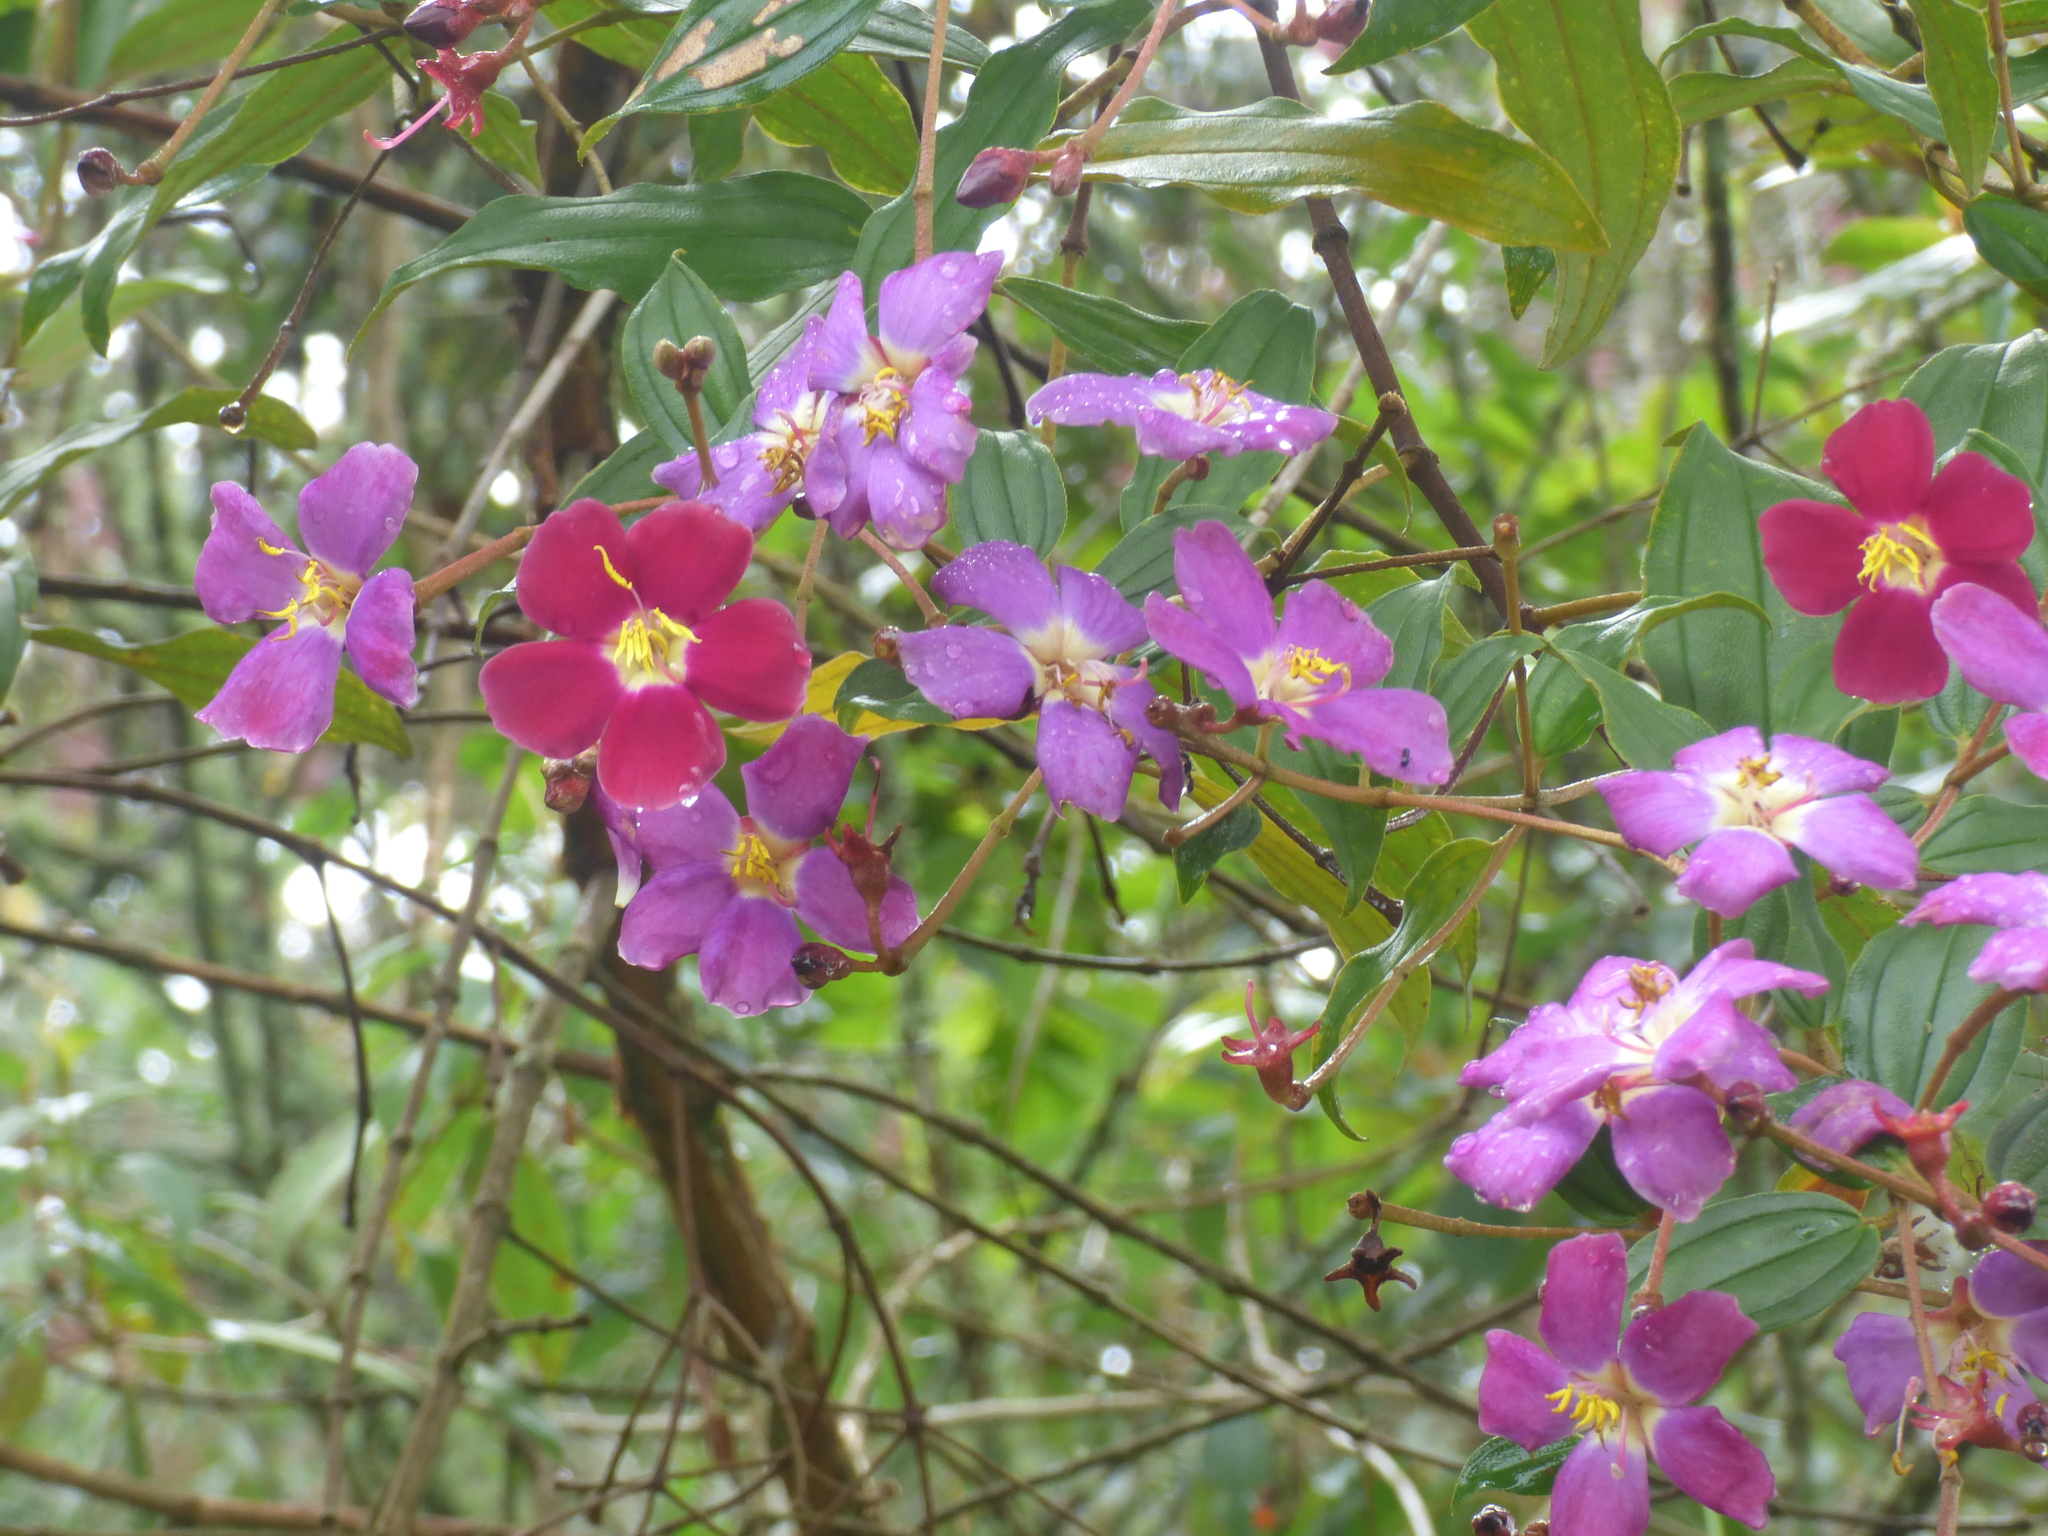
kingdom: Plantae
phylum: Tracheophyta
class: Magnoliopsida
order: Myrtales
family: Melastomataceae
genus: Andesanthus
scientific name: Andesanthus lepidotus
